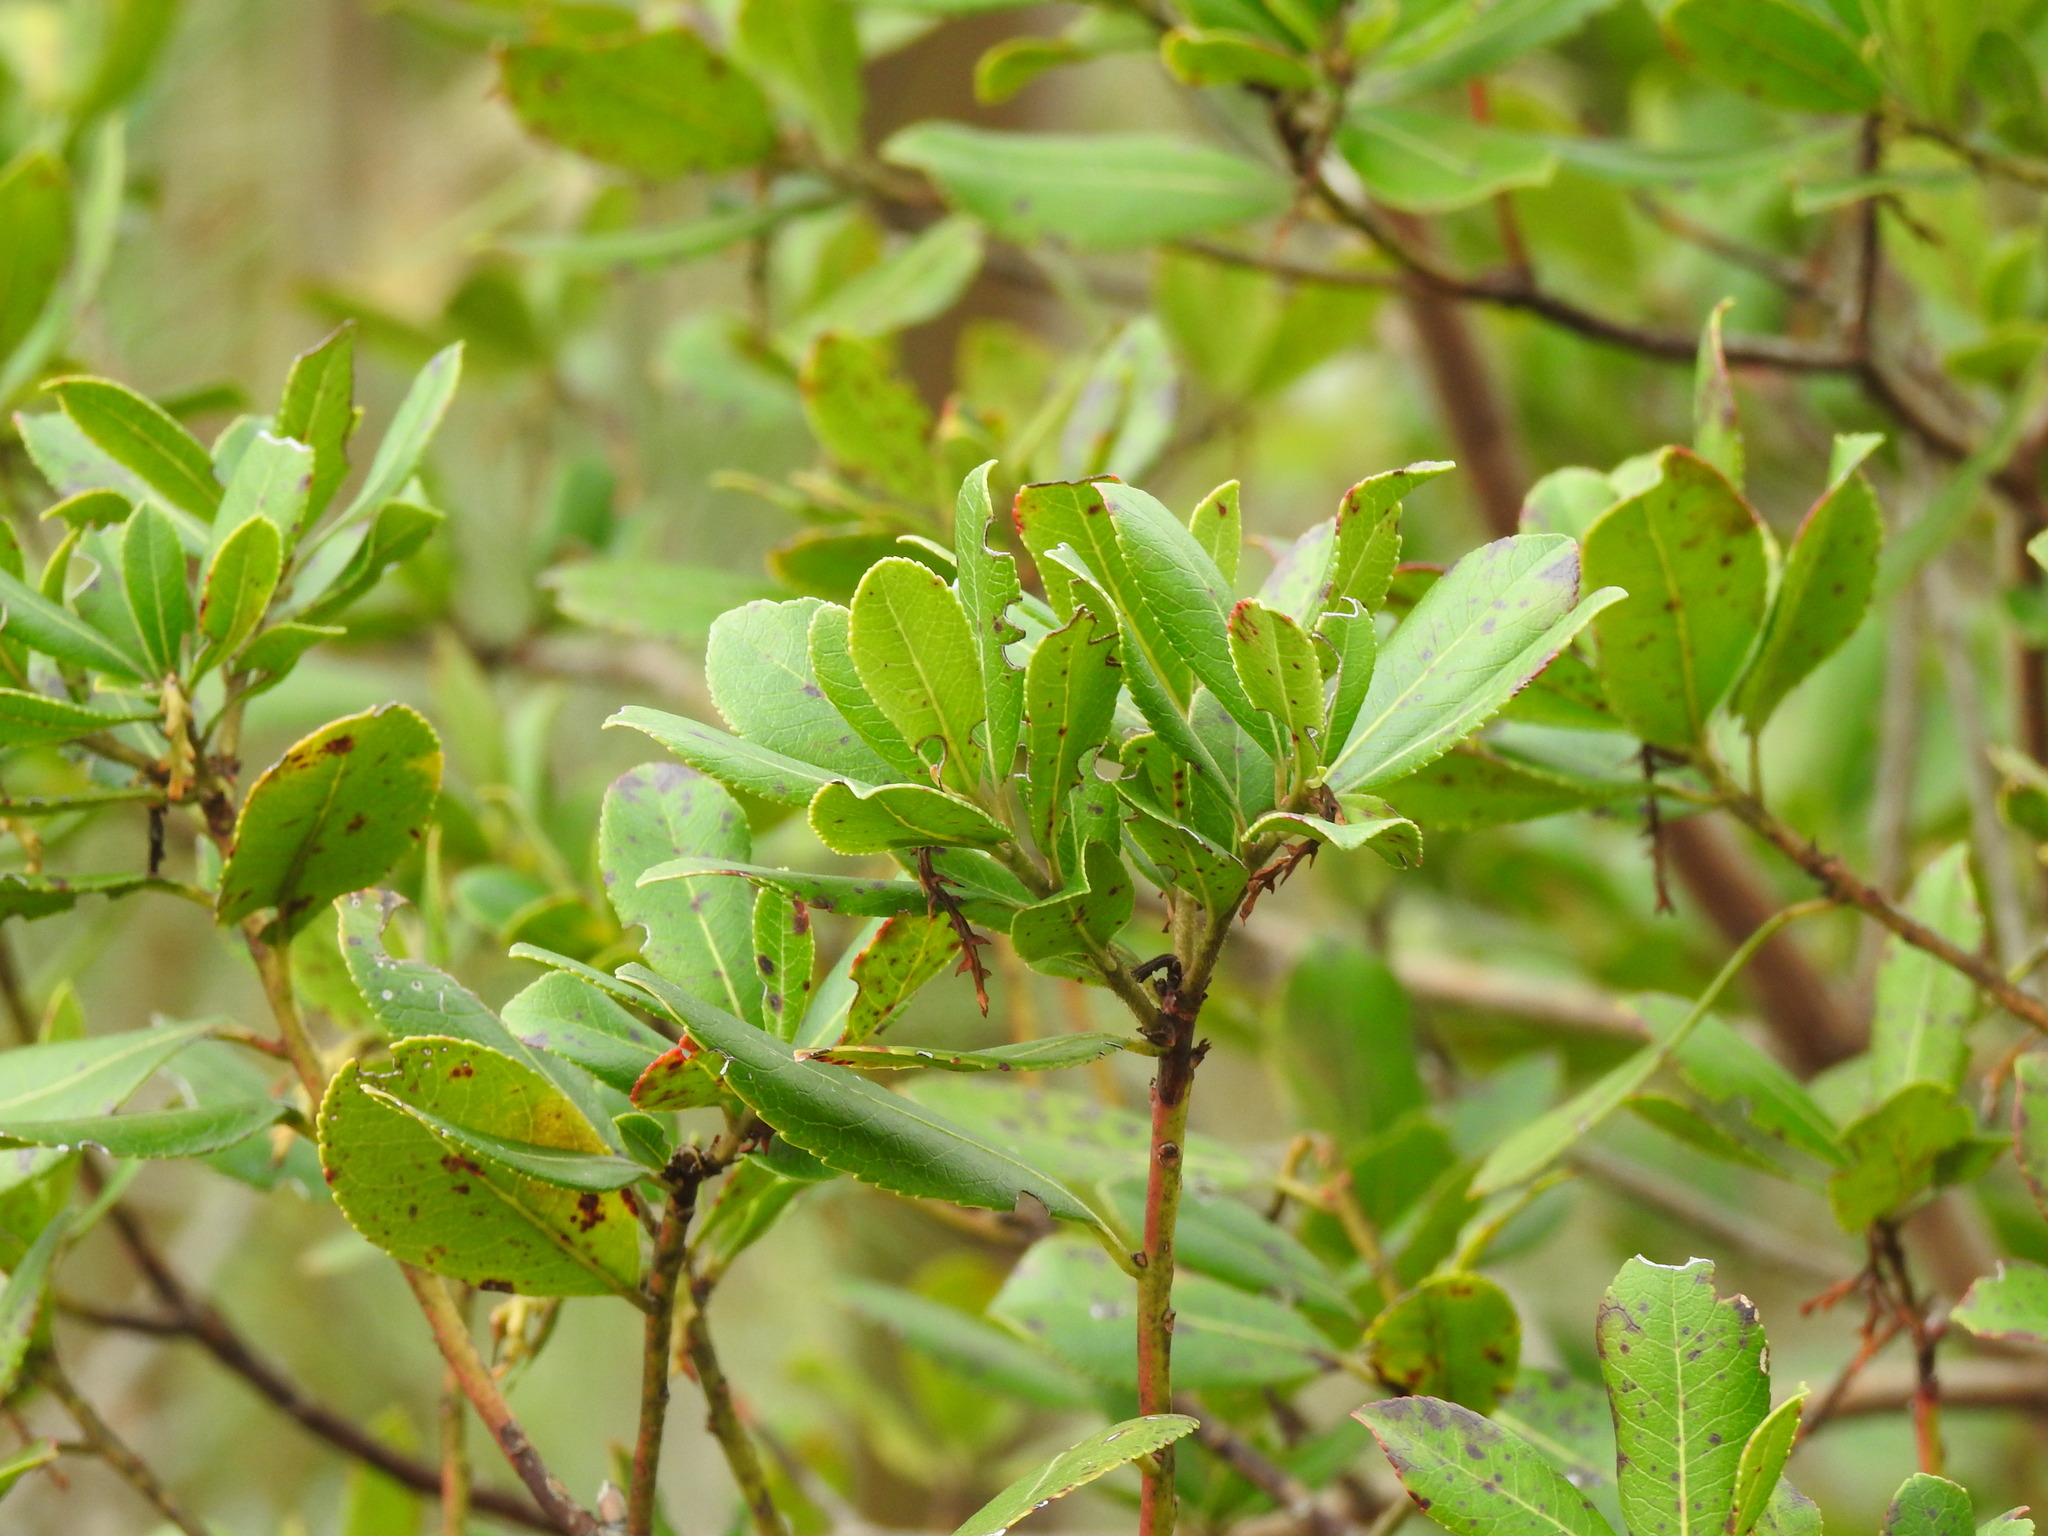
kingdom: Plantae
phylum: Tracheophyta
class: Magnoliopsida
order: Ericales
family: Ericaceae
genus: Arbutus
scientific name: Arbutus unedo
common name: Strawberry-tree
